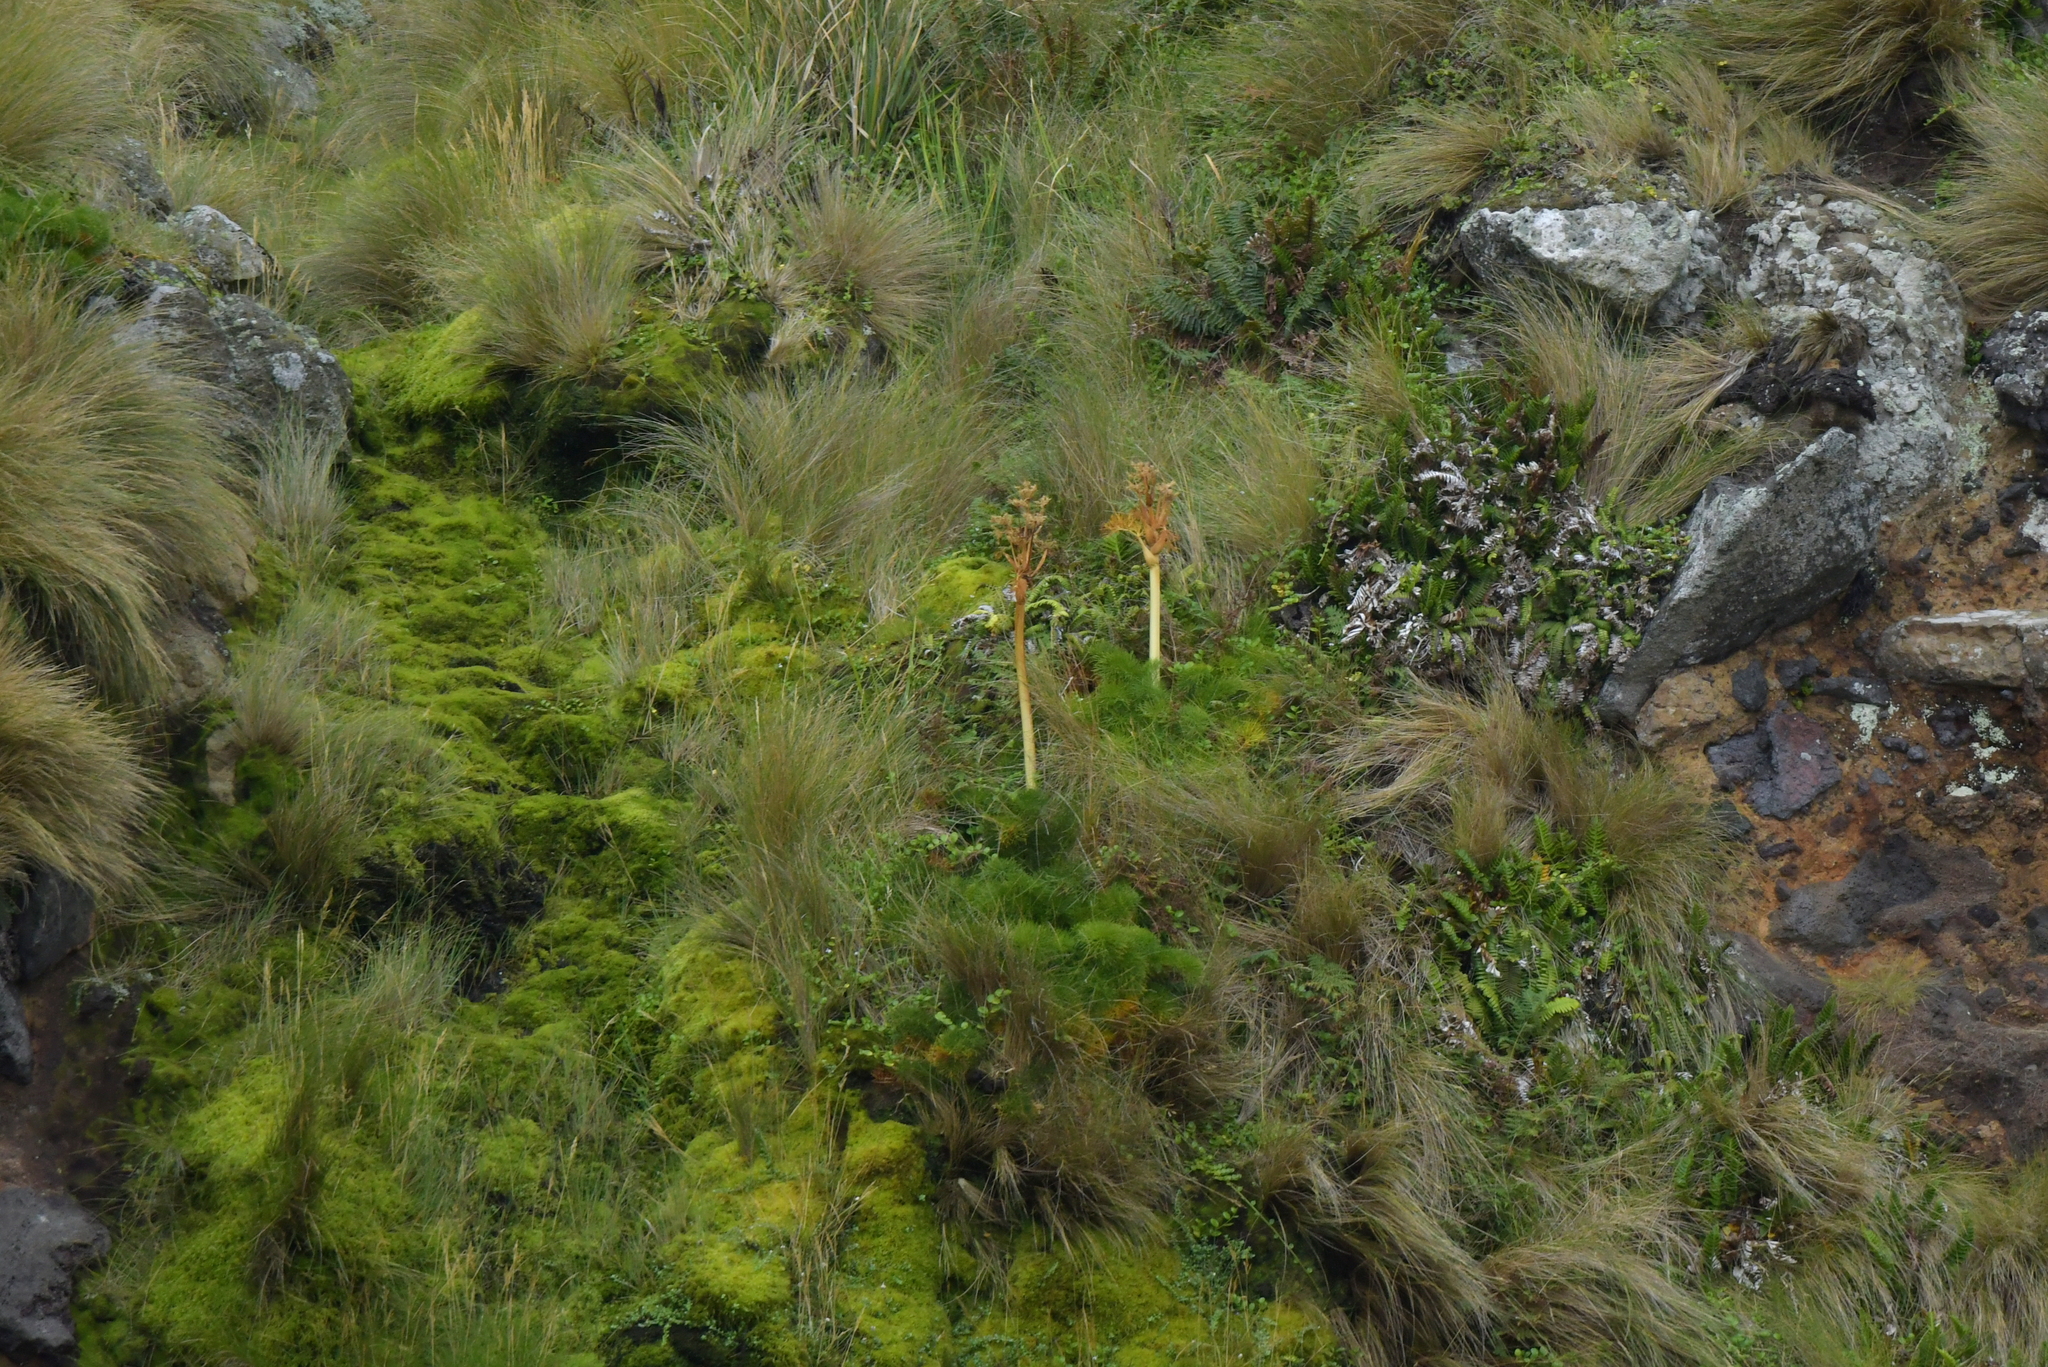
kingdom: Plantae
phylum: Tracheophyta
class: Magnoliopsida
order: Apiales
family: Apiaceae
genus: Anisotome
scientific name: Anisotome antipoda
